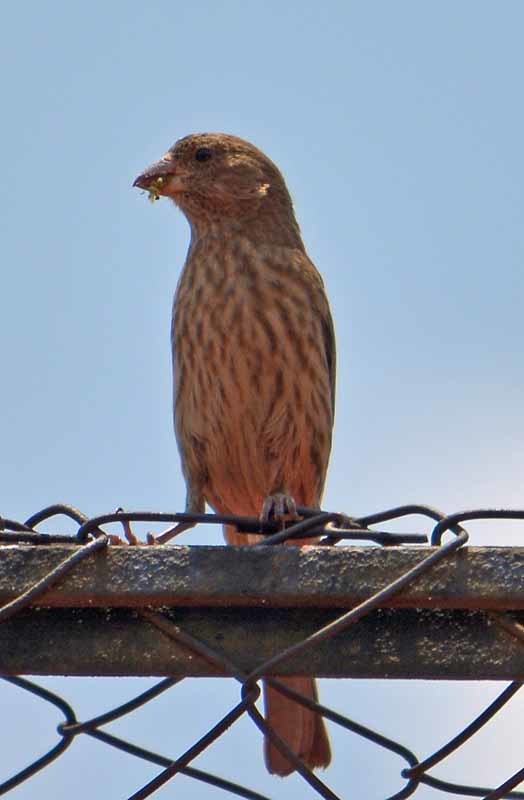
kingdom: Animalia
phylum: Chordata
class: Aves
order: Passeriformes
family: Fringillidae
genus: Haemorhous
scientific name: Haemorhous mexicanus
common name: House finch
